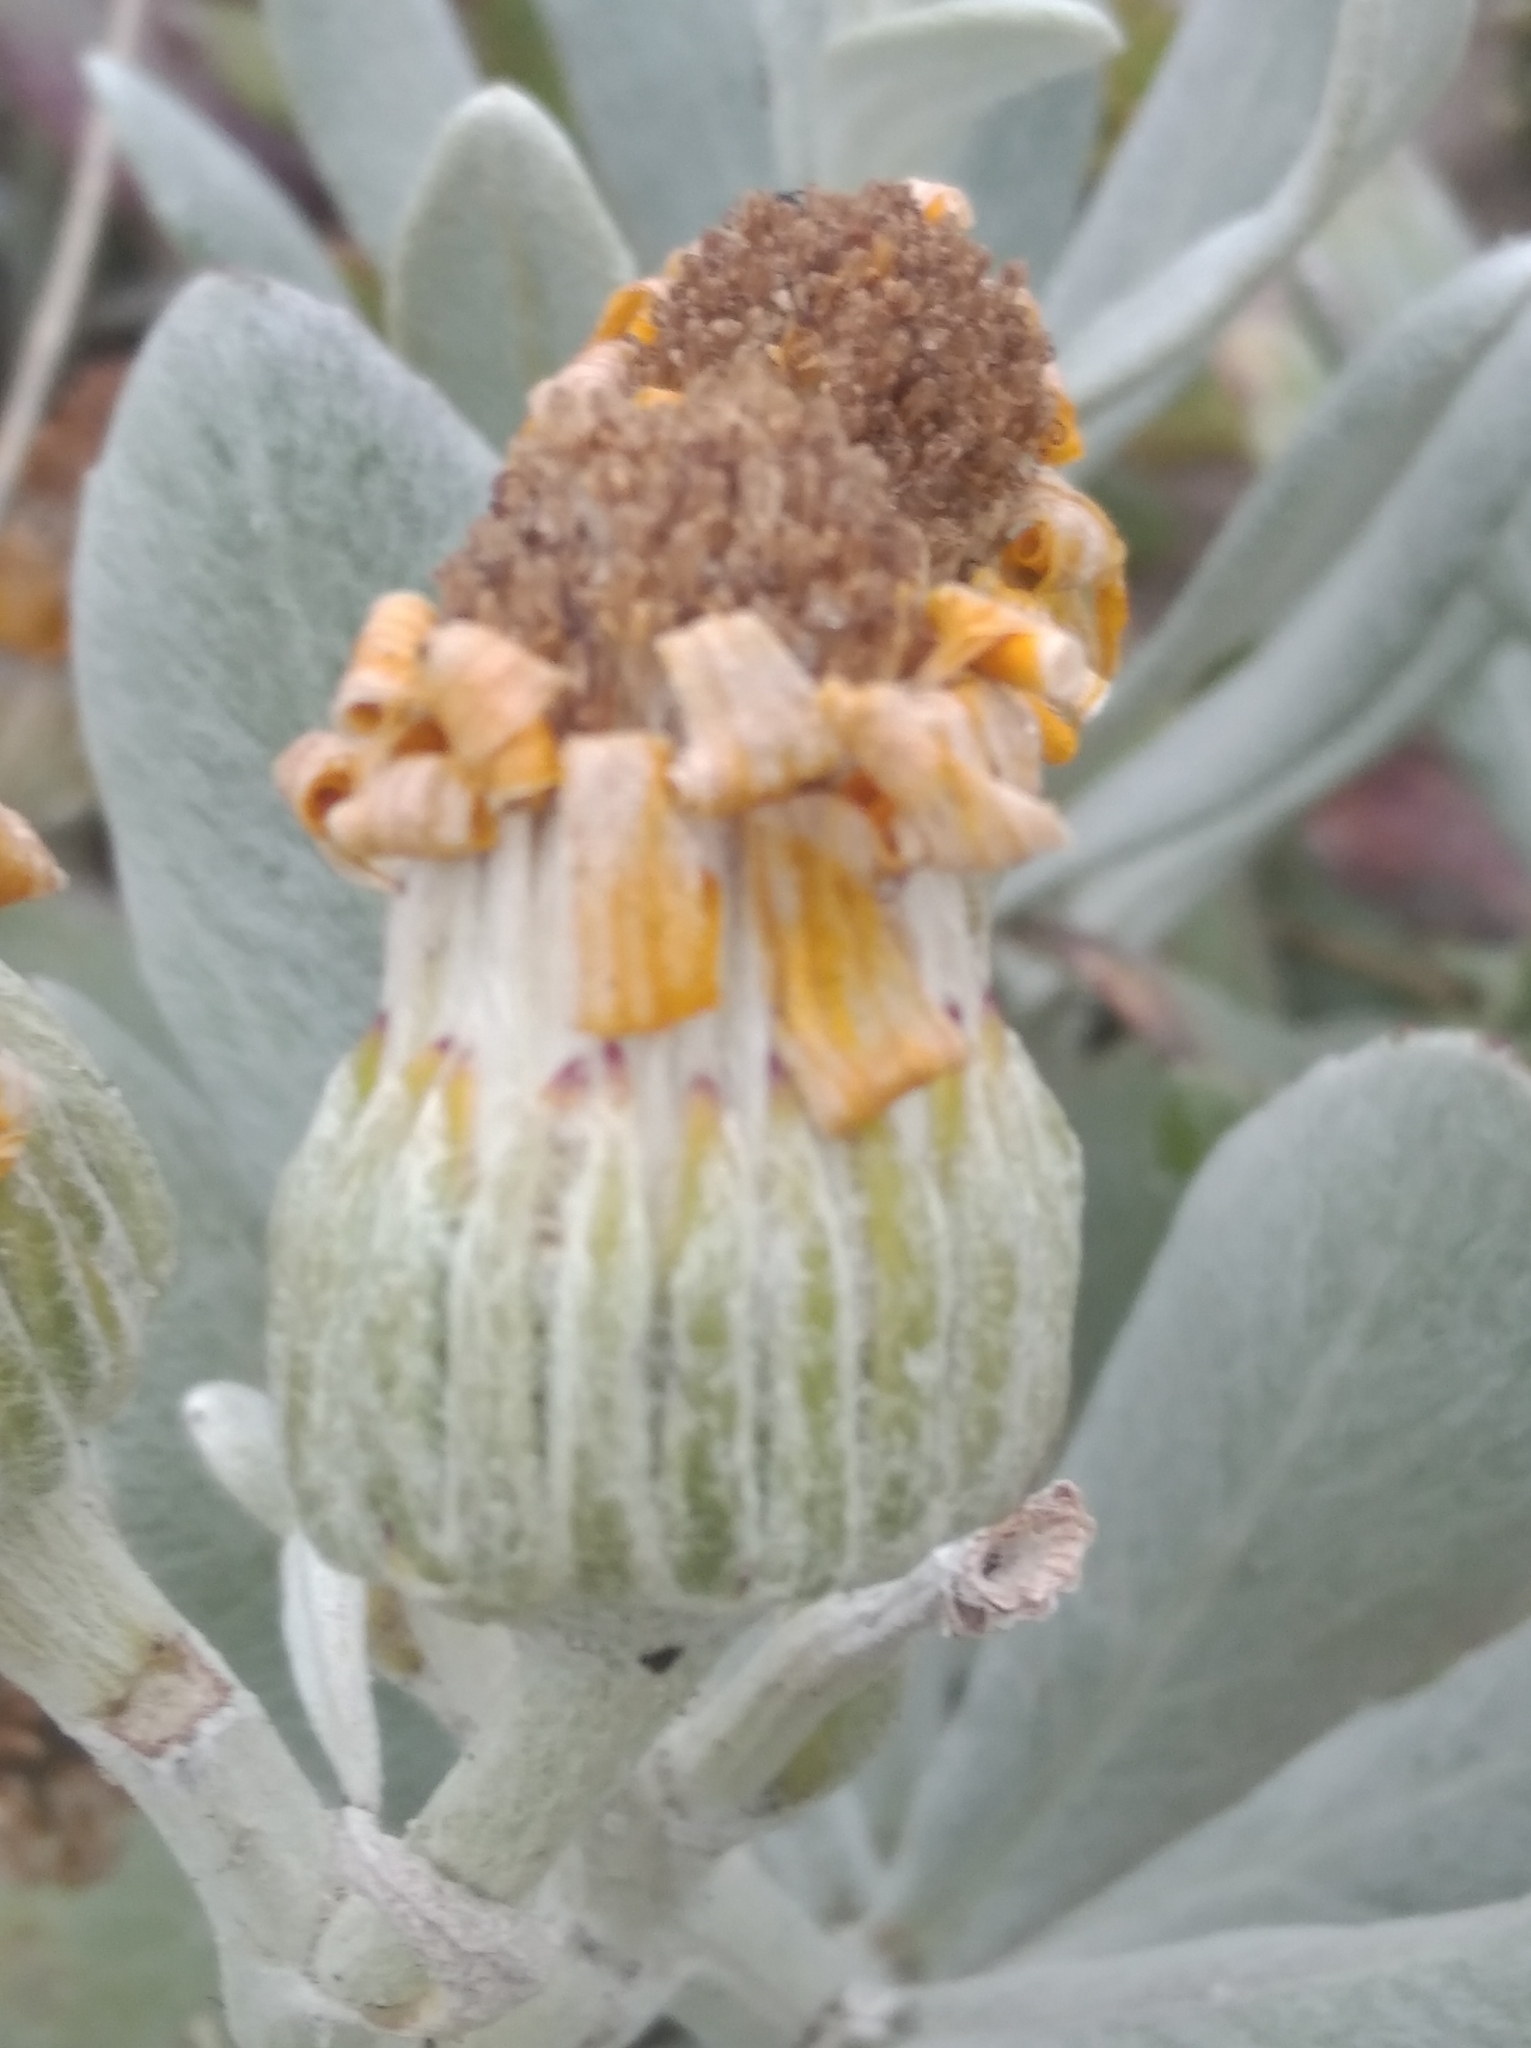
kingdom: Plantae
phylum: Tracheophyta
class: Magnoliopsida
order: Asterales
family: Asteraceae
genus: Senecio
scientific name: Senecio crassiflorus
